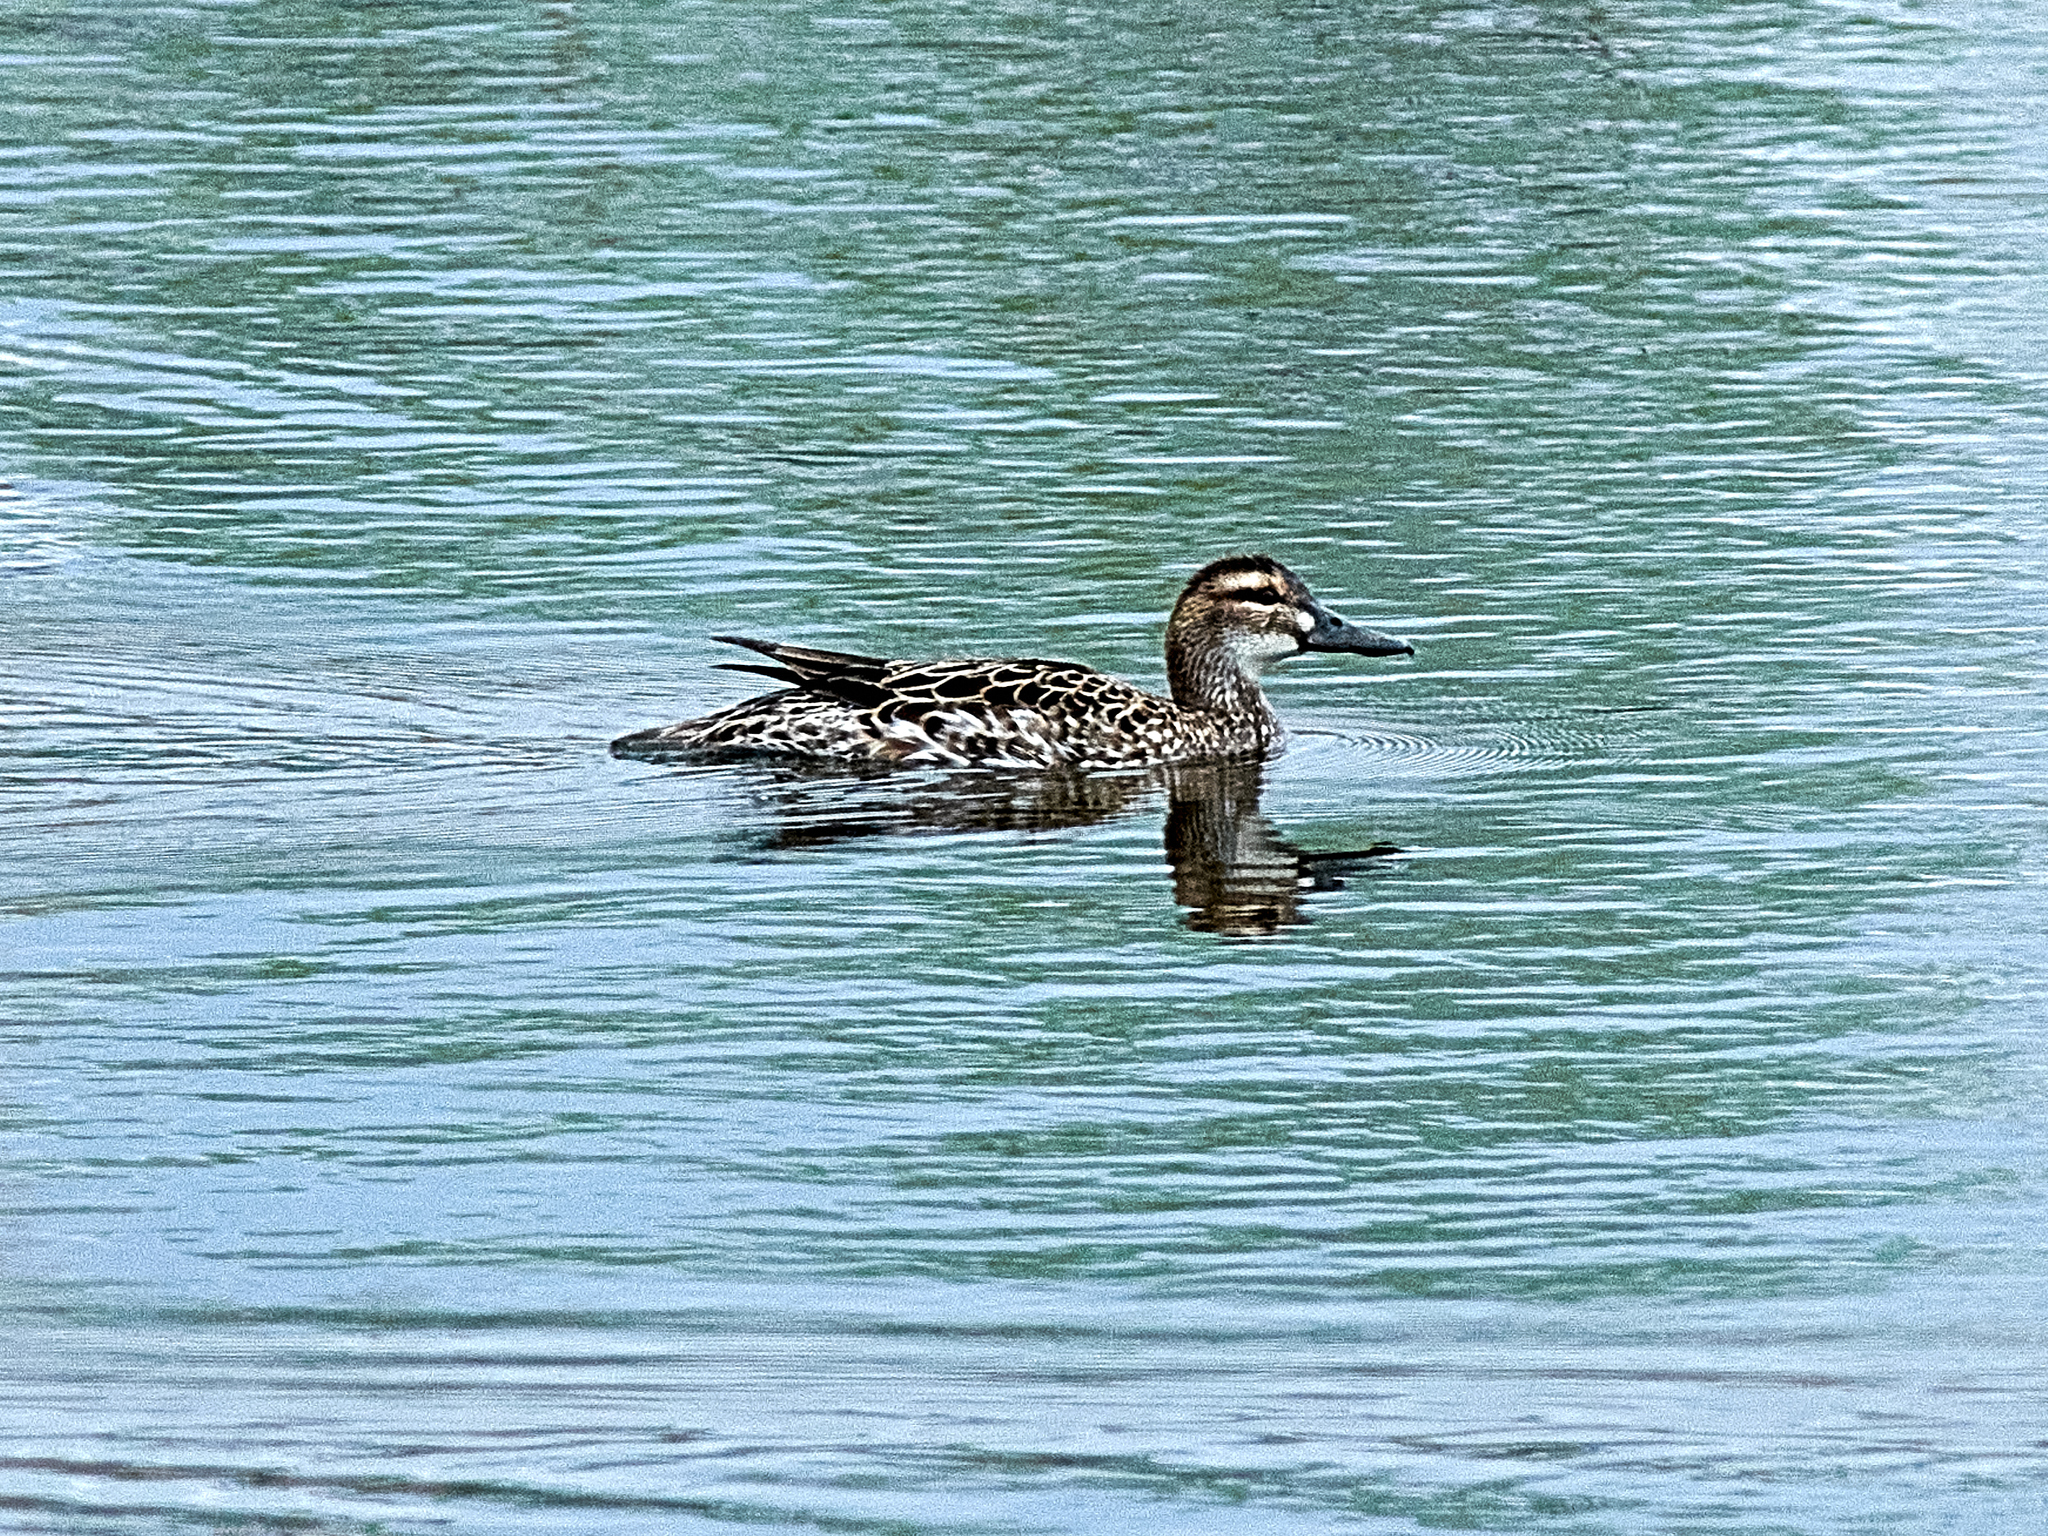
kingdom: Animalia
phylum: Chordata
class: Aves
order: Anseriformes
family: Anatidae
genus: Spatula
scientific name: Spatula querquedula
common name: Garganey
